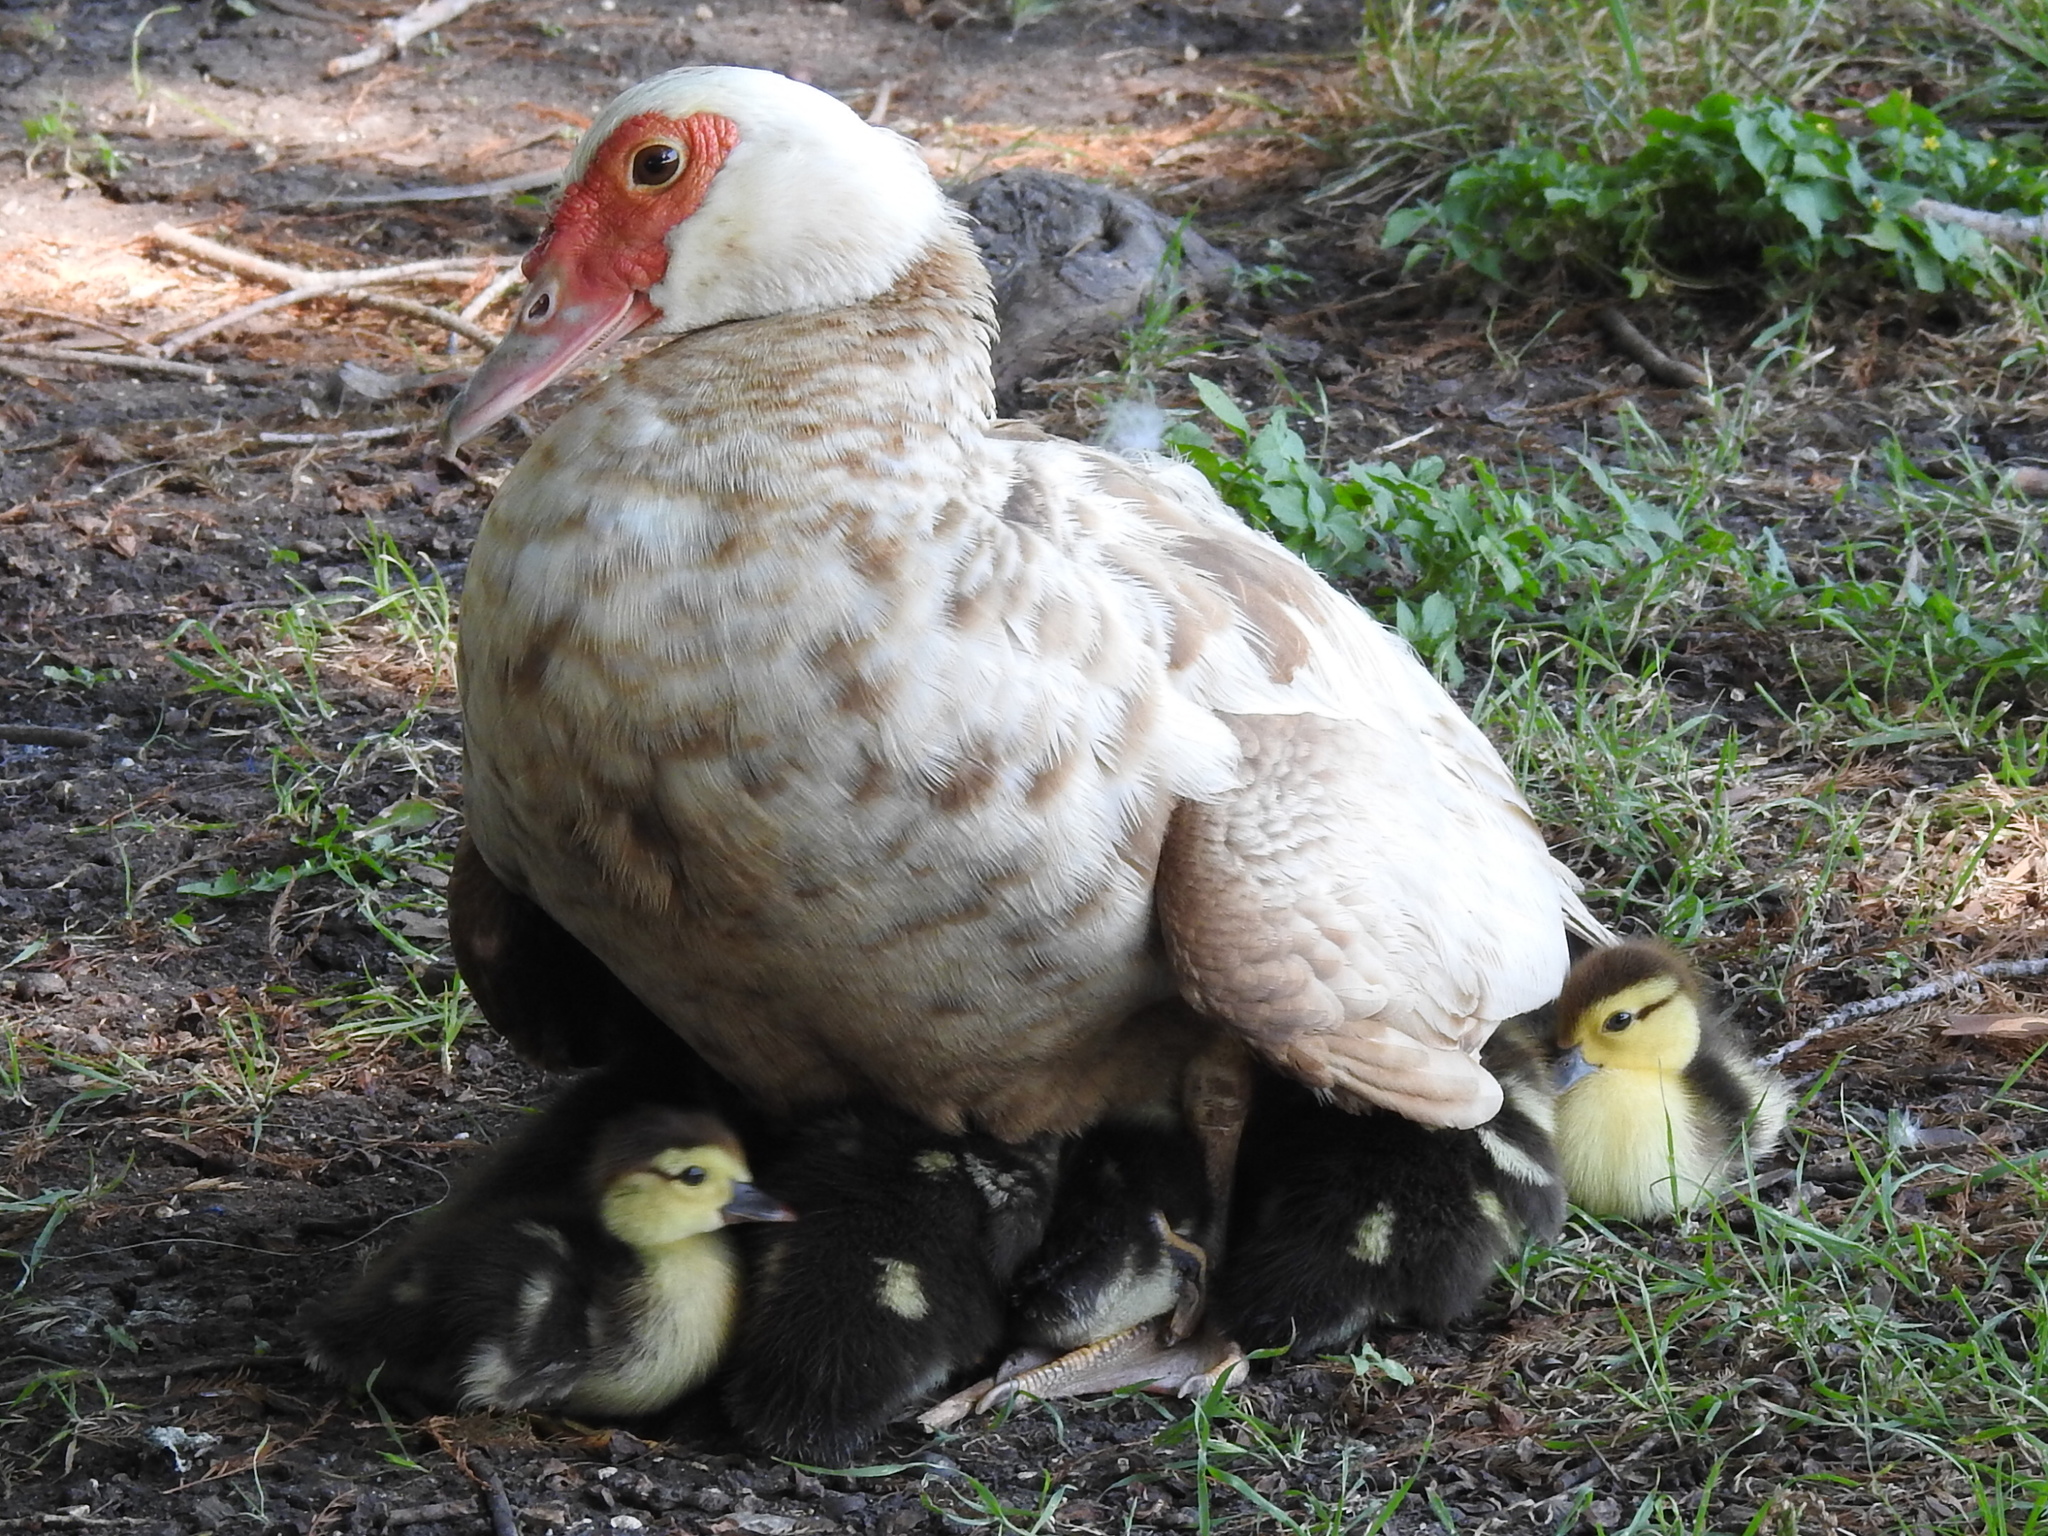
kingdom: Animalia
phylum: Chordata
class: Aves
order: Anseriformes
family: Anatidae
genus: Cairina
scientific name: Cairina moschata
